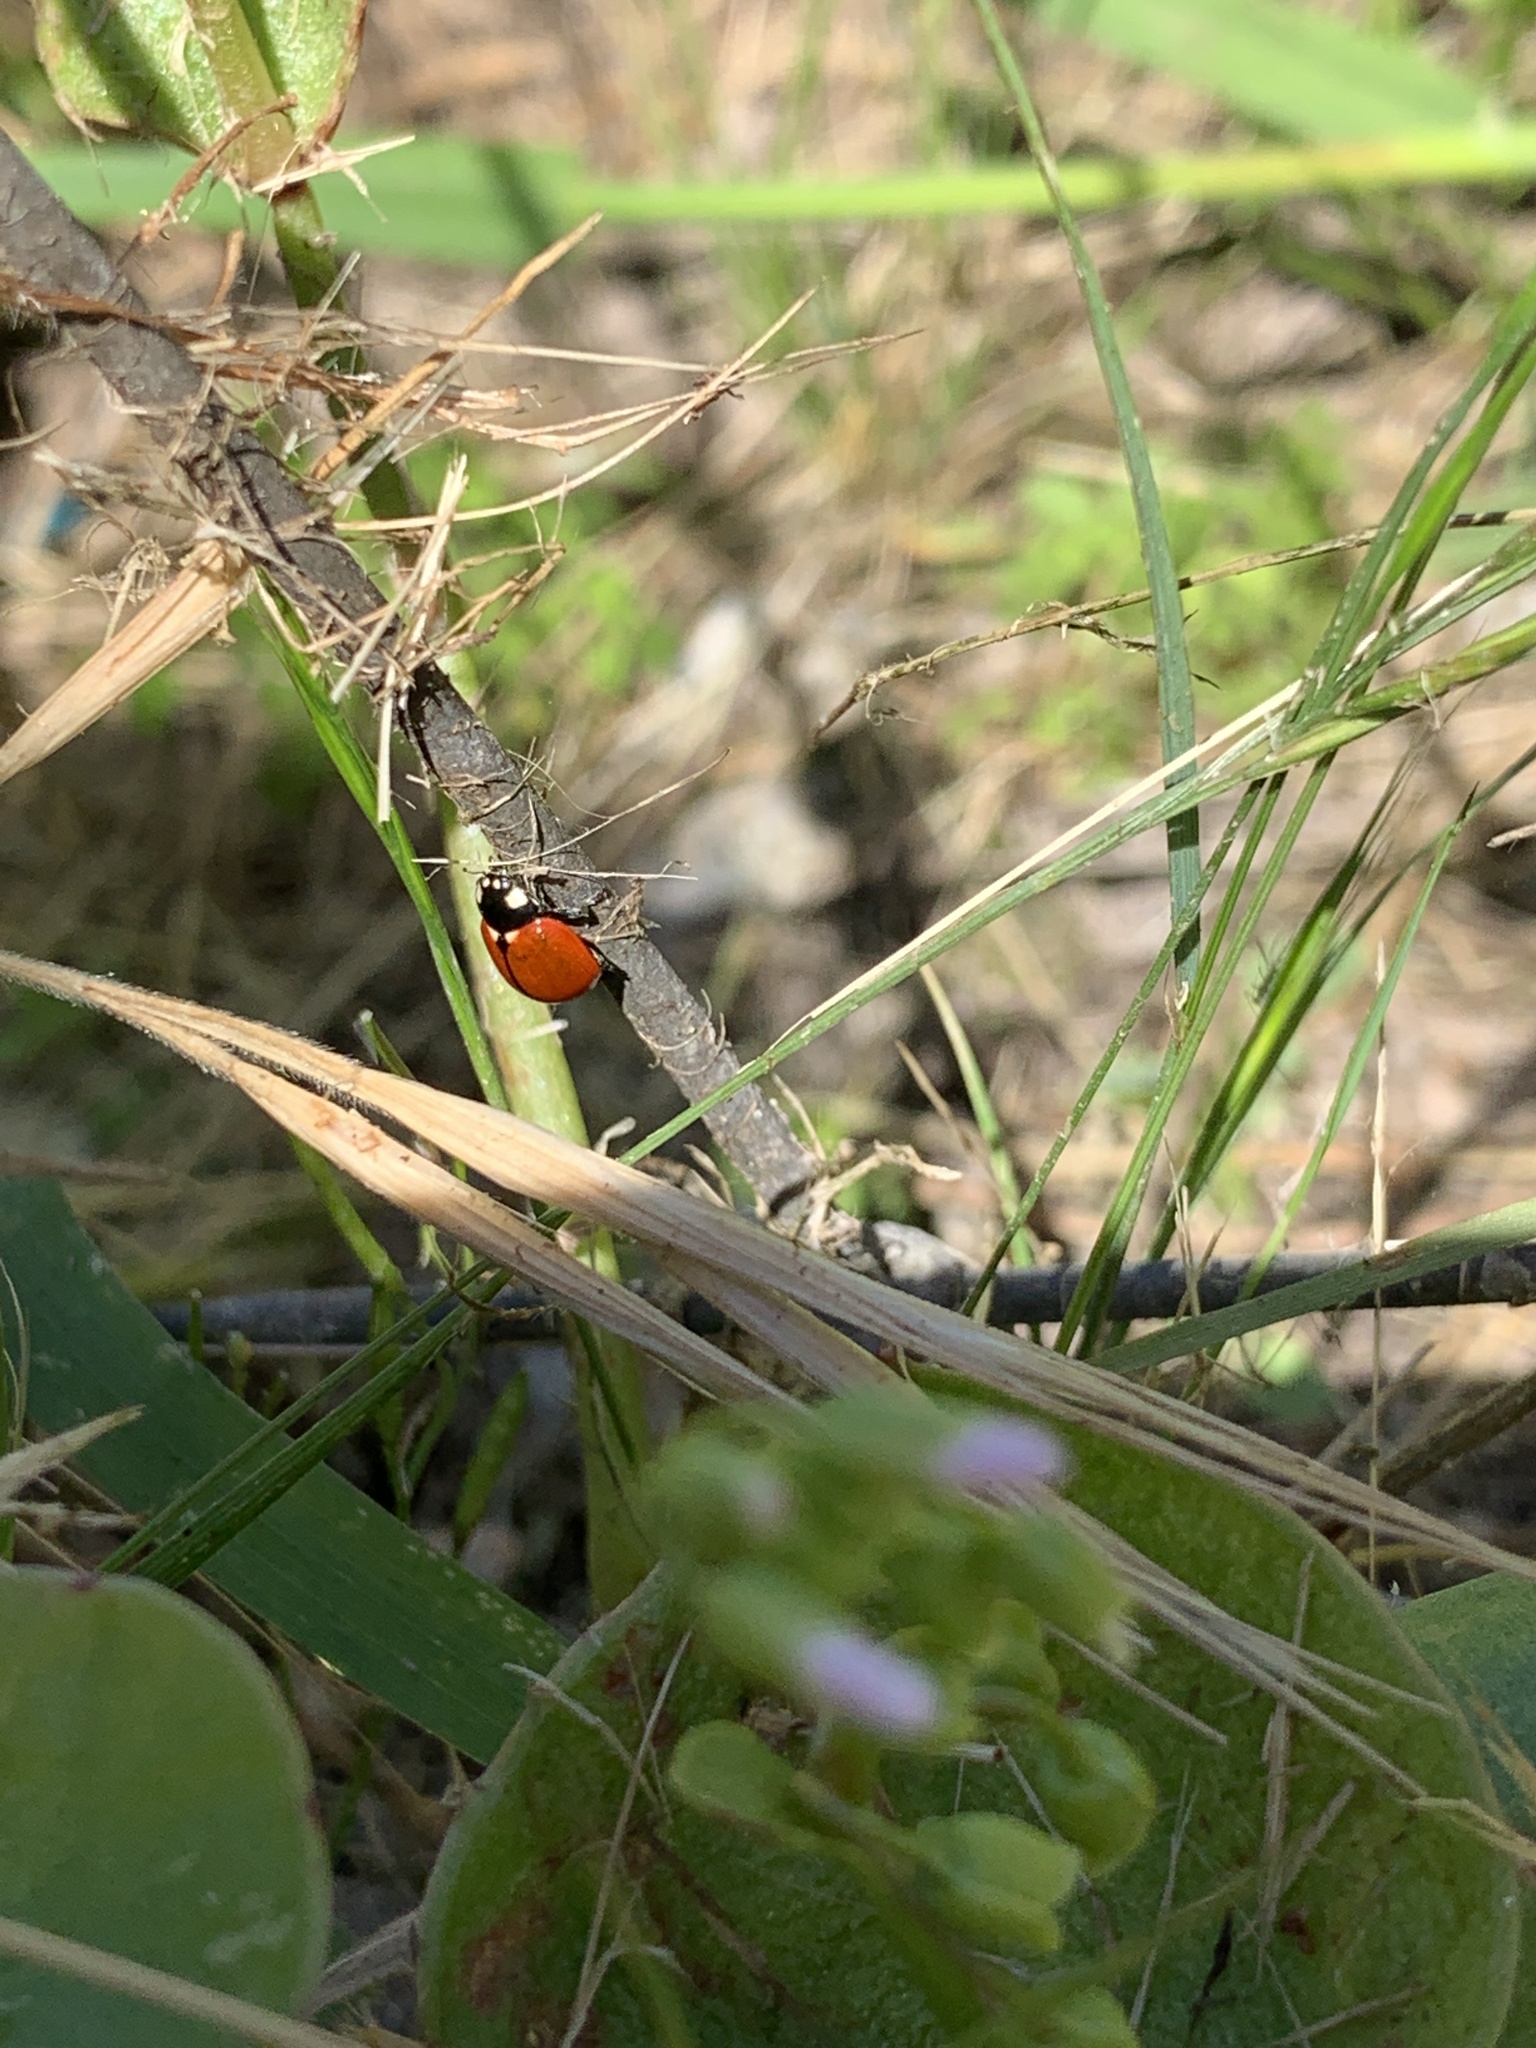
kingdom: Animalia
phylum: Arthropoda
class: Insecta
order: Coleoptera
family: Coccinellidae
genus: Coccinella
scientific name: Coccinella californica
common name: Lady beetle
